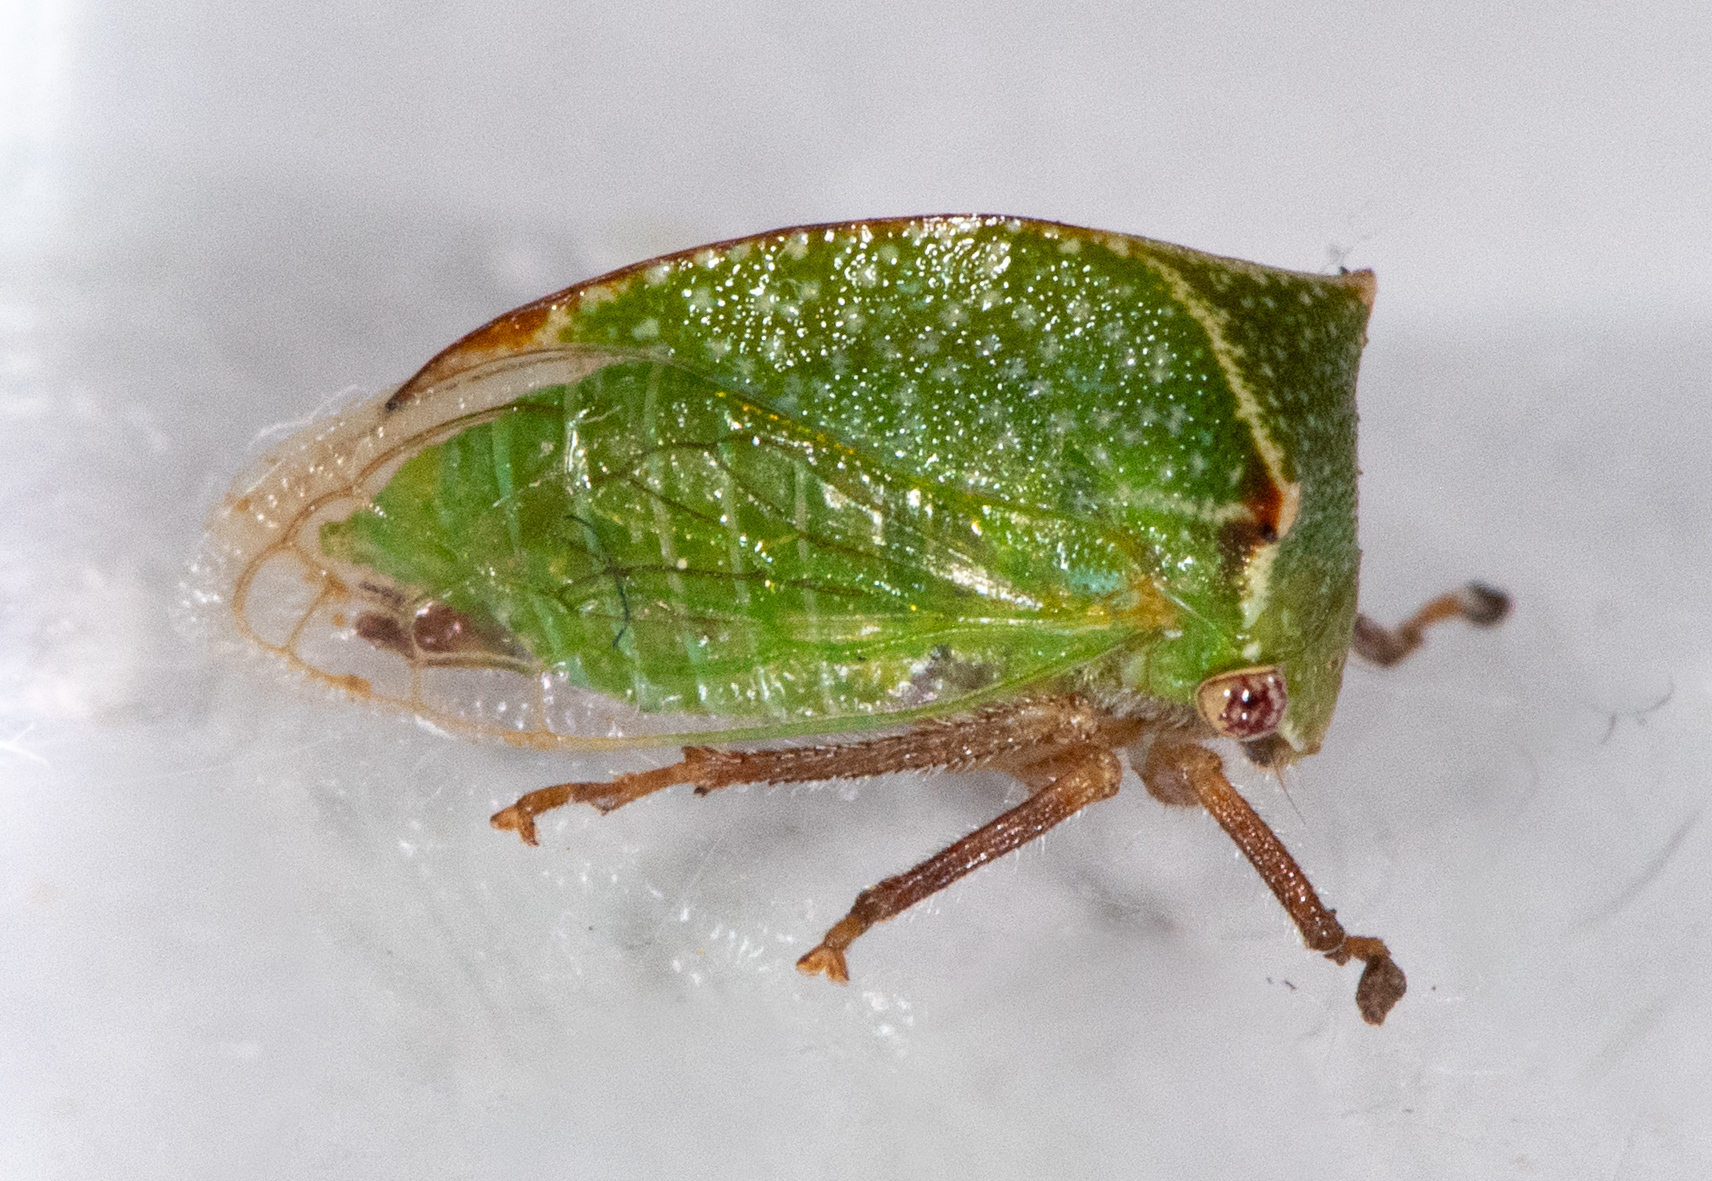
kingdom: Animalia
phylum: Arthropoda
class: Insecta
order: Hemiptera
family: Membracidae
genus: Tortistilus
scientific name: Tortistilus albidosparsa
